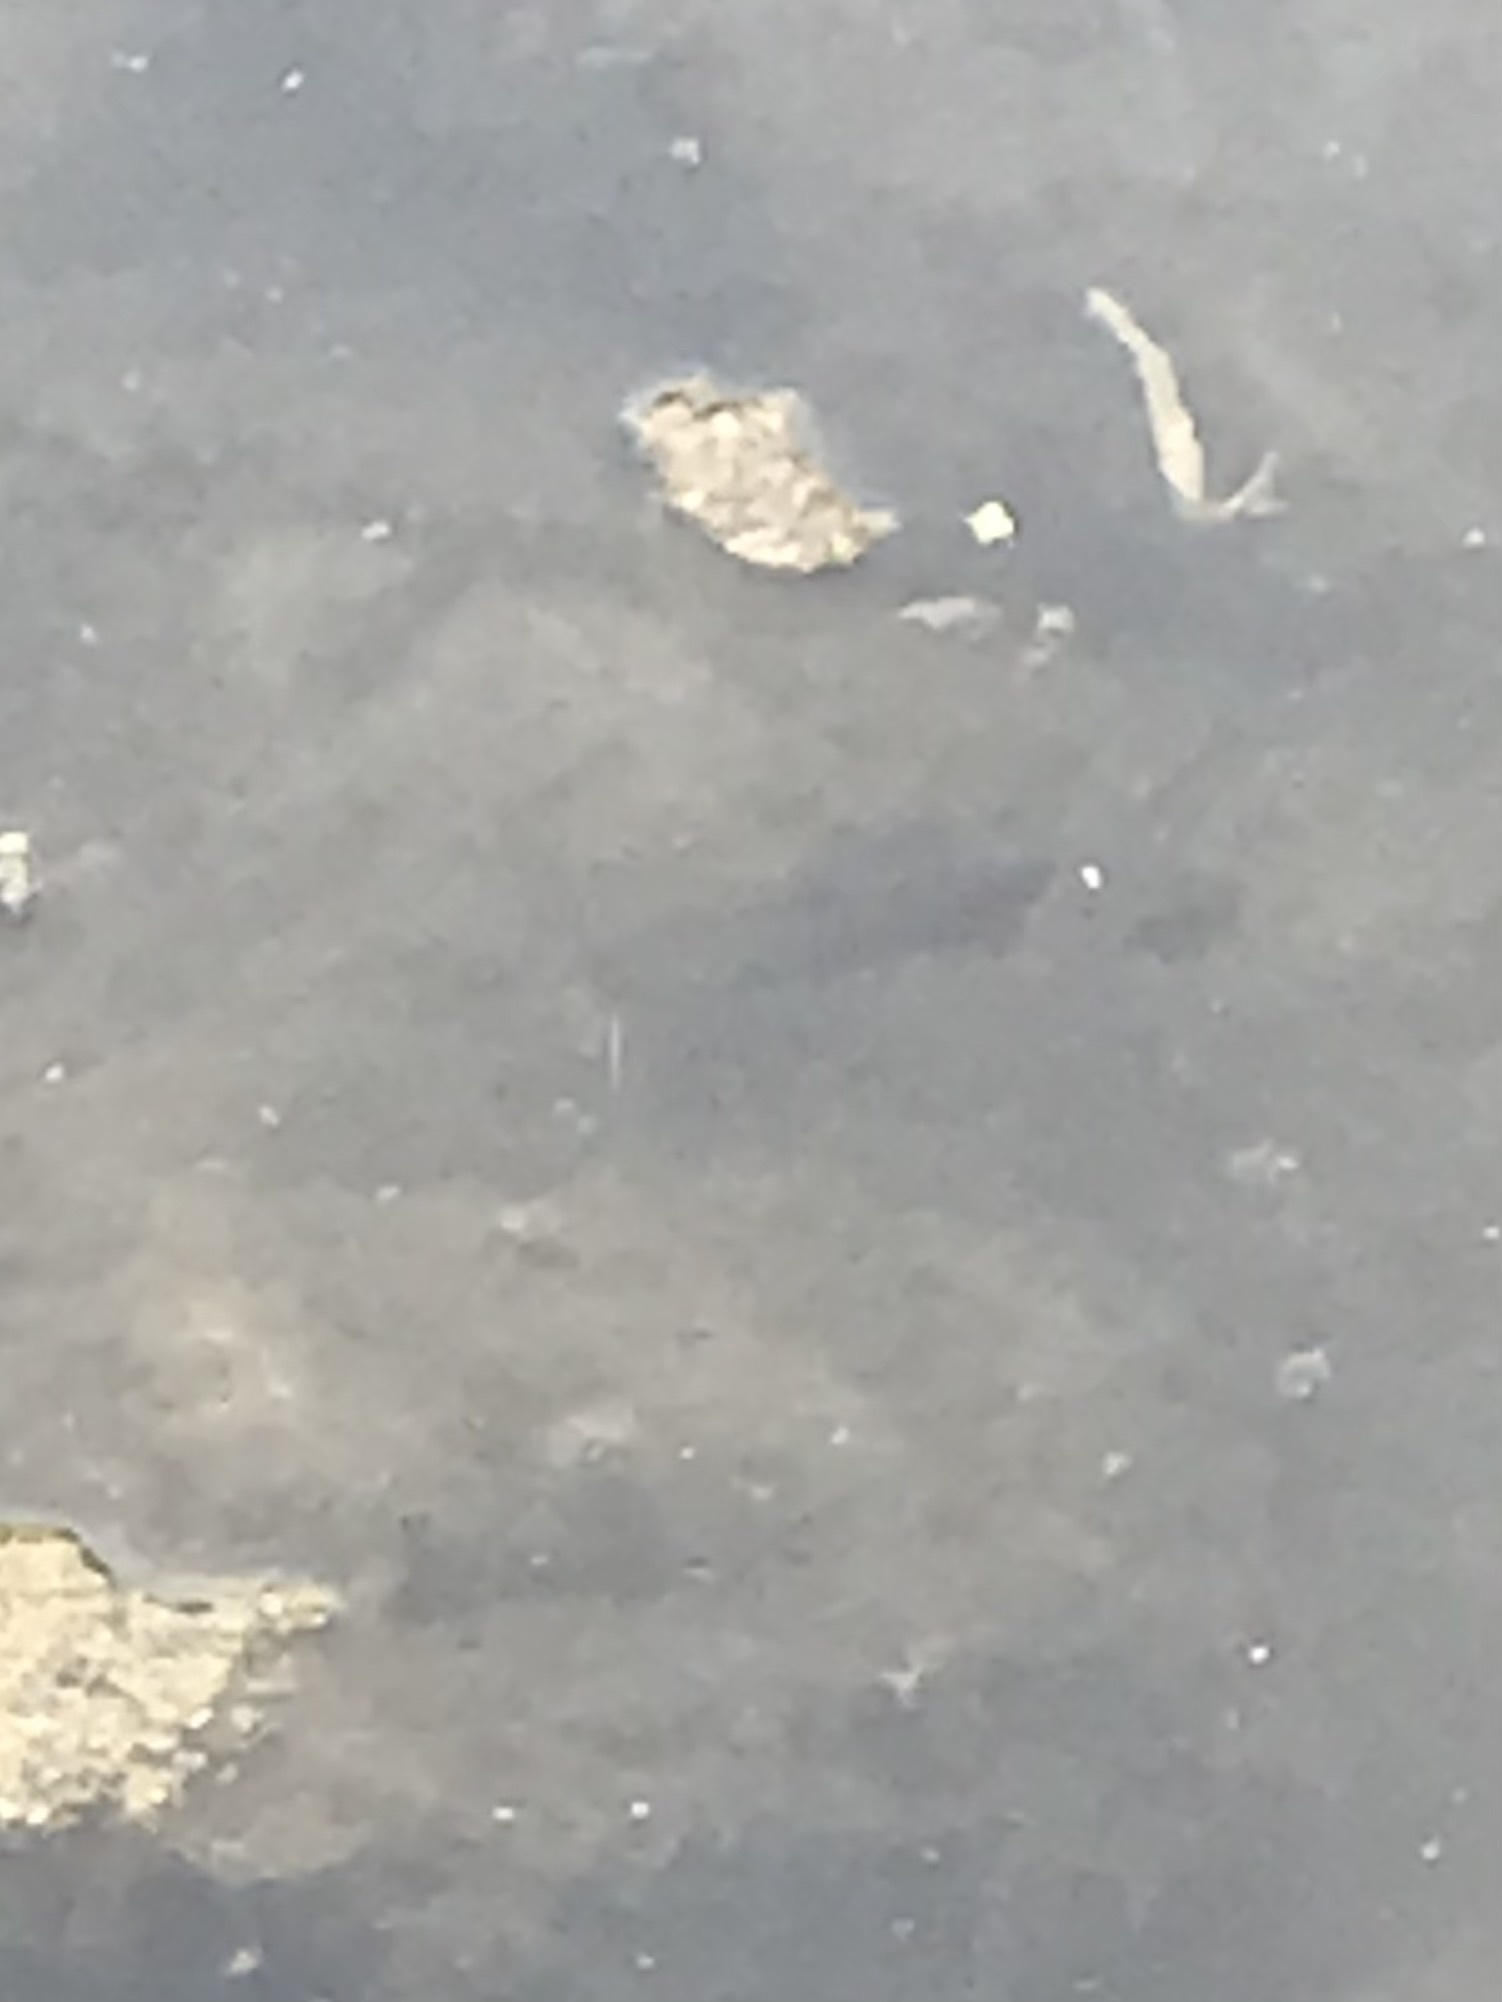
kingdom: Animalia
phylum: Chordata
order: Siluriformes
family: Ictaluridae
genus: Ameiurus
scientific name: Ameiurus natalis
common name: Yellow bullhead
